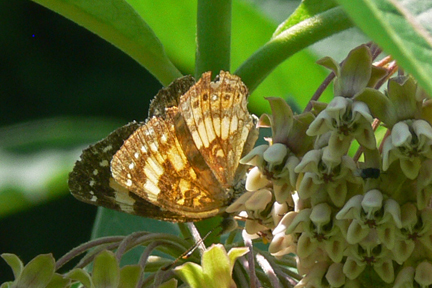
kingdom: Animalia
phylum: Arthropoda
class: Insecta
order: Lepidoptera
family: Nymphalidae
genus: Chlosyne
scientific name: Chlosyne nycteis
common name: Silvery checkerspot
